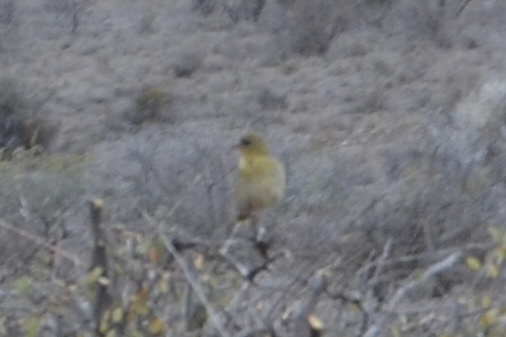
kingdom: Animalia
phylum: Chordata
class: Aves
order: Passeriformes
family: Ploceidae
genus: Ploceus
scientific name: Ploceus velatus
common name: Southern masked weaver
